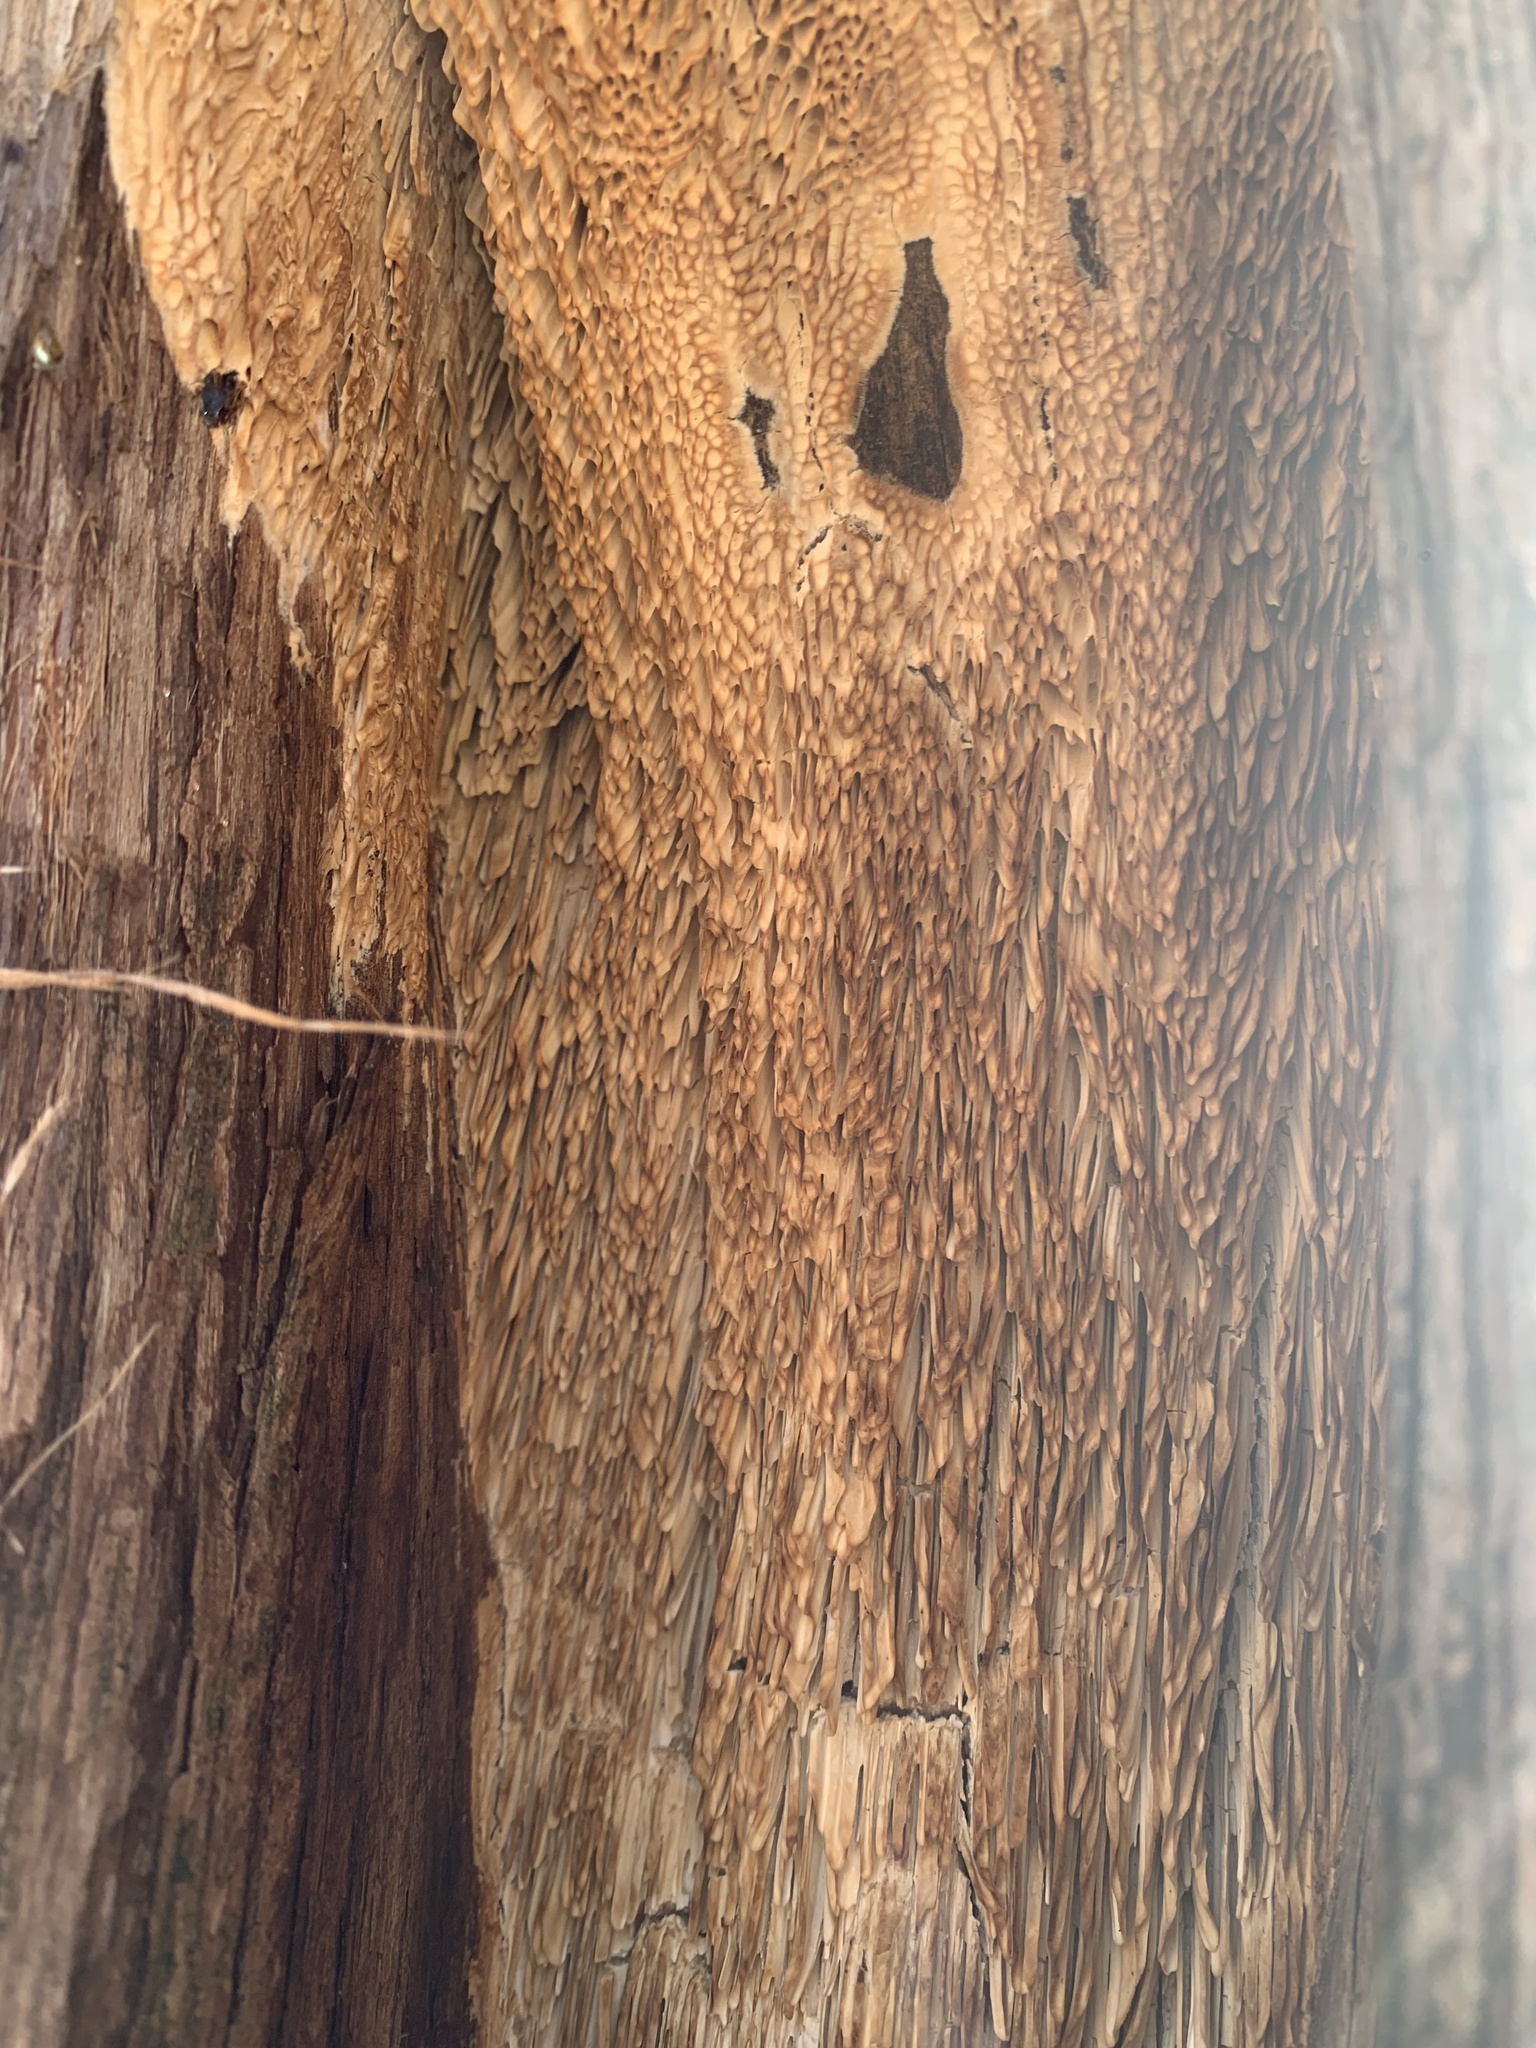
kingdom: Fungi
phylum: Basidiomycota
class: Agaricomycetes
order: Polyporales
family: Fomitopsidaceae
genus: Fomitopsis
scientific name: Fomitopsis
